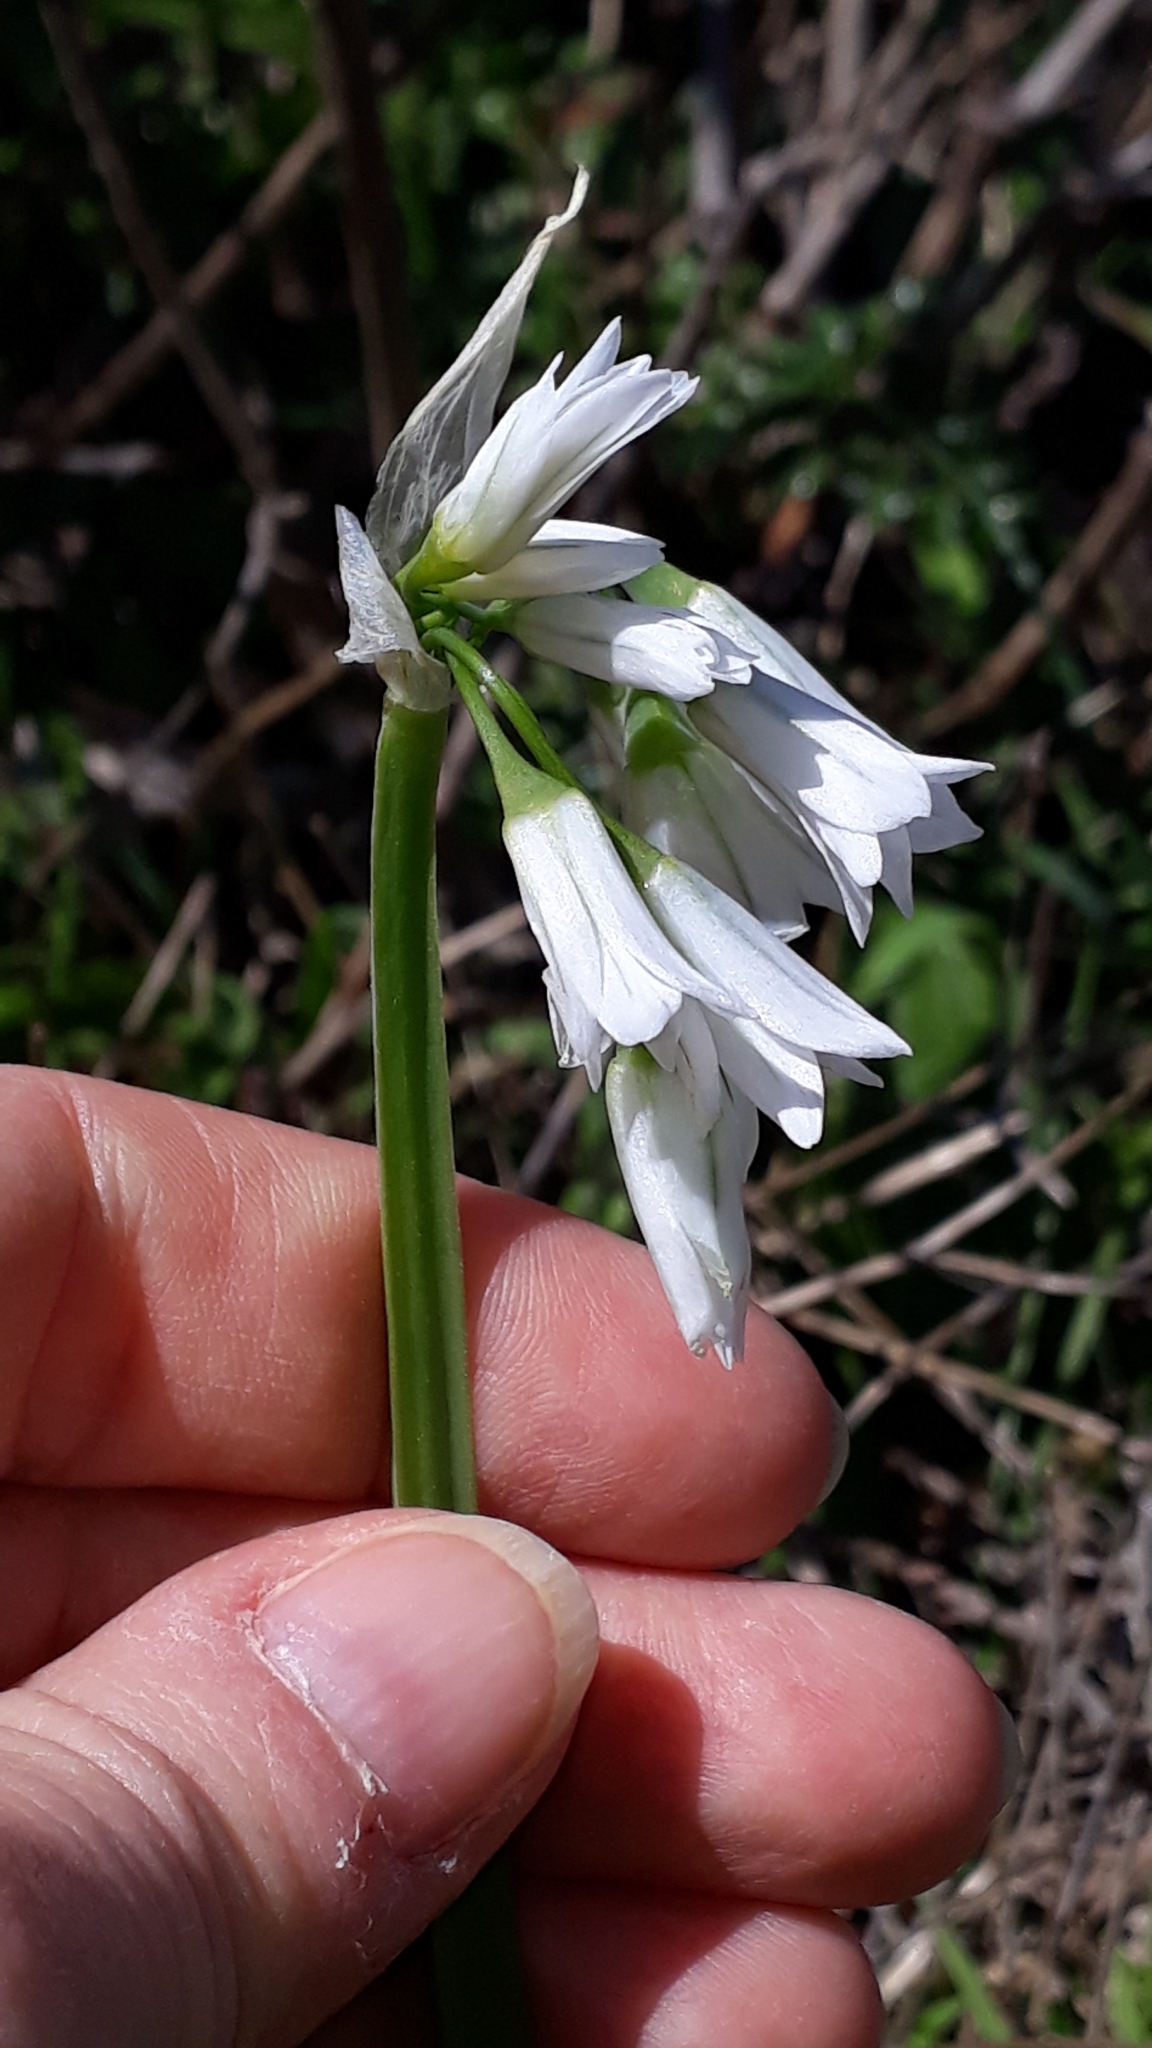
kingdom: Plantae
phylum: Tracheophyta
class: Liliopsida
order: Asparagales
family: Amaryllidaceae
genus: Allium
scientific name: Allium triquetrum
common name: Three-cornered garlic
